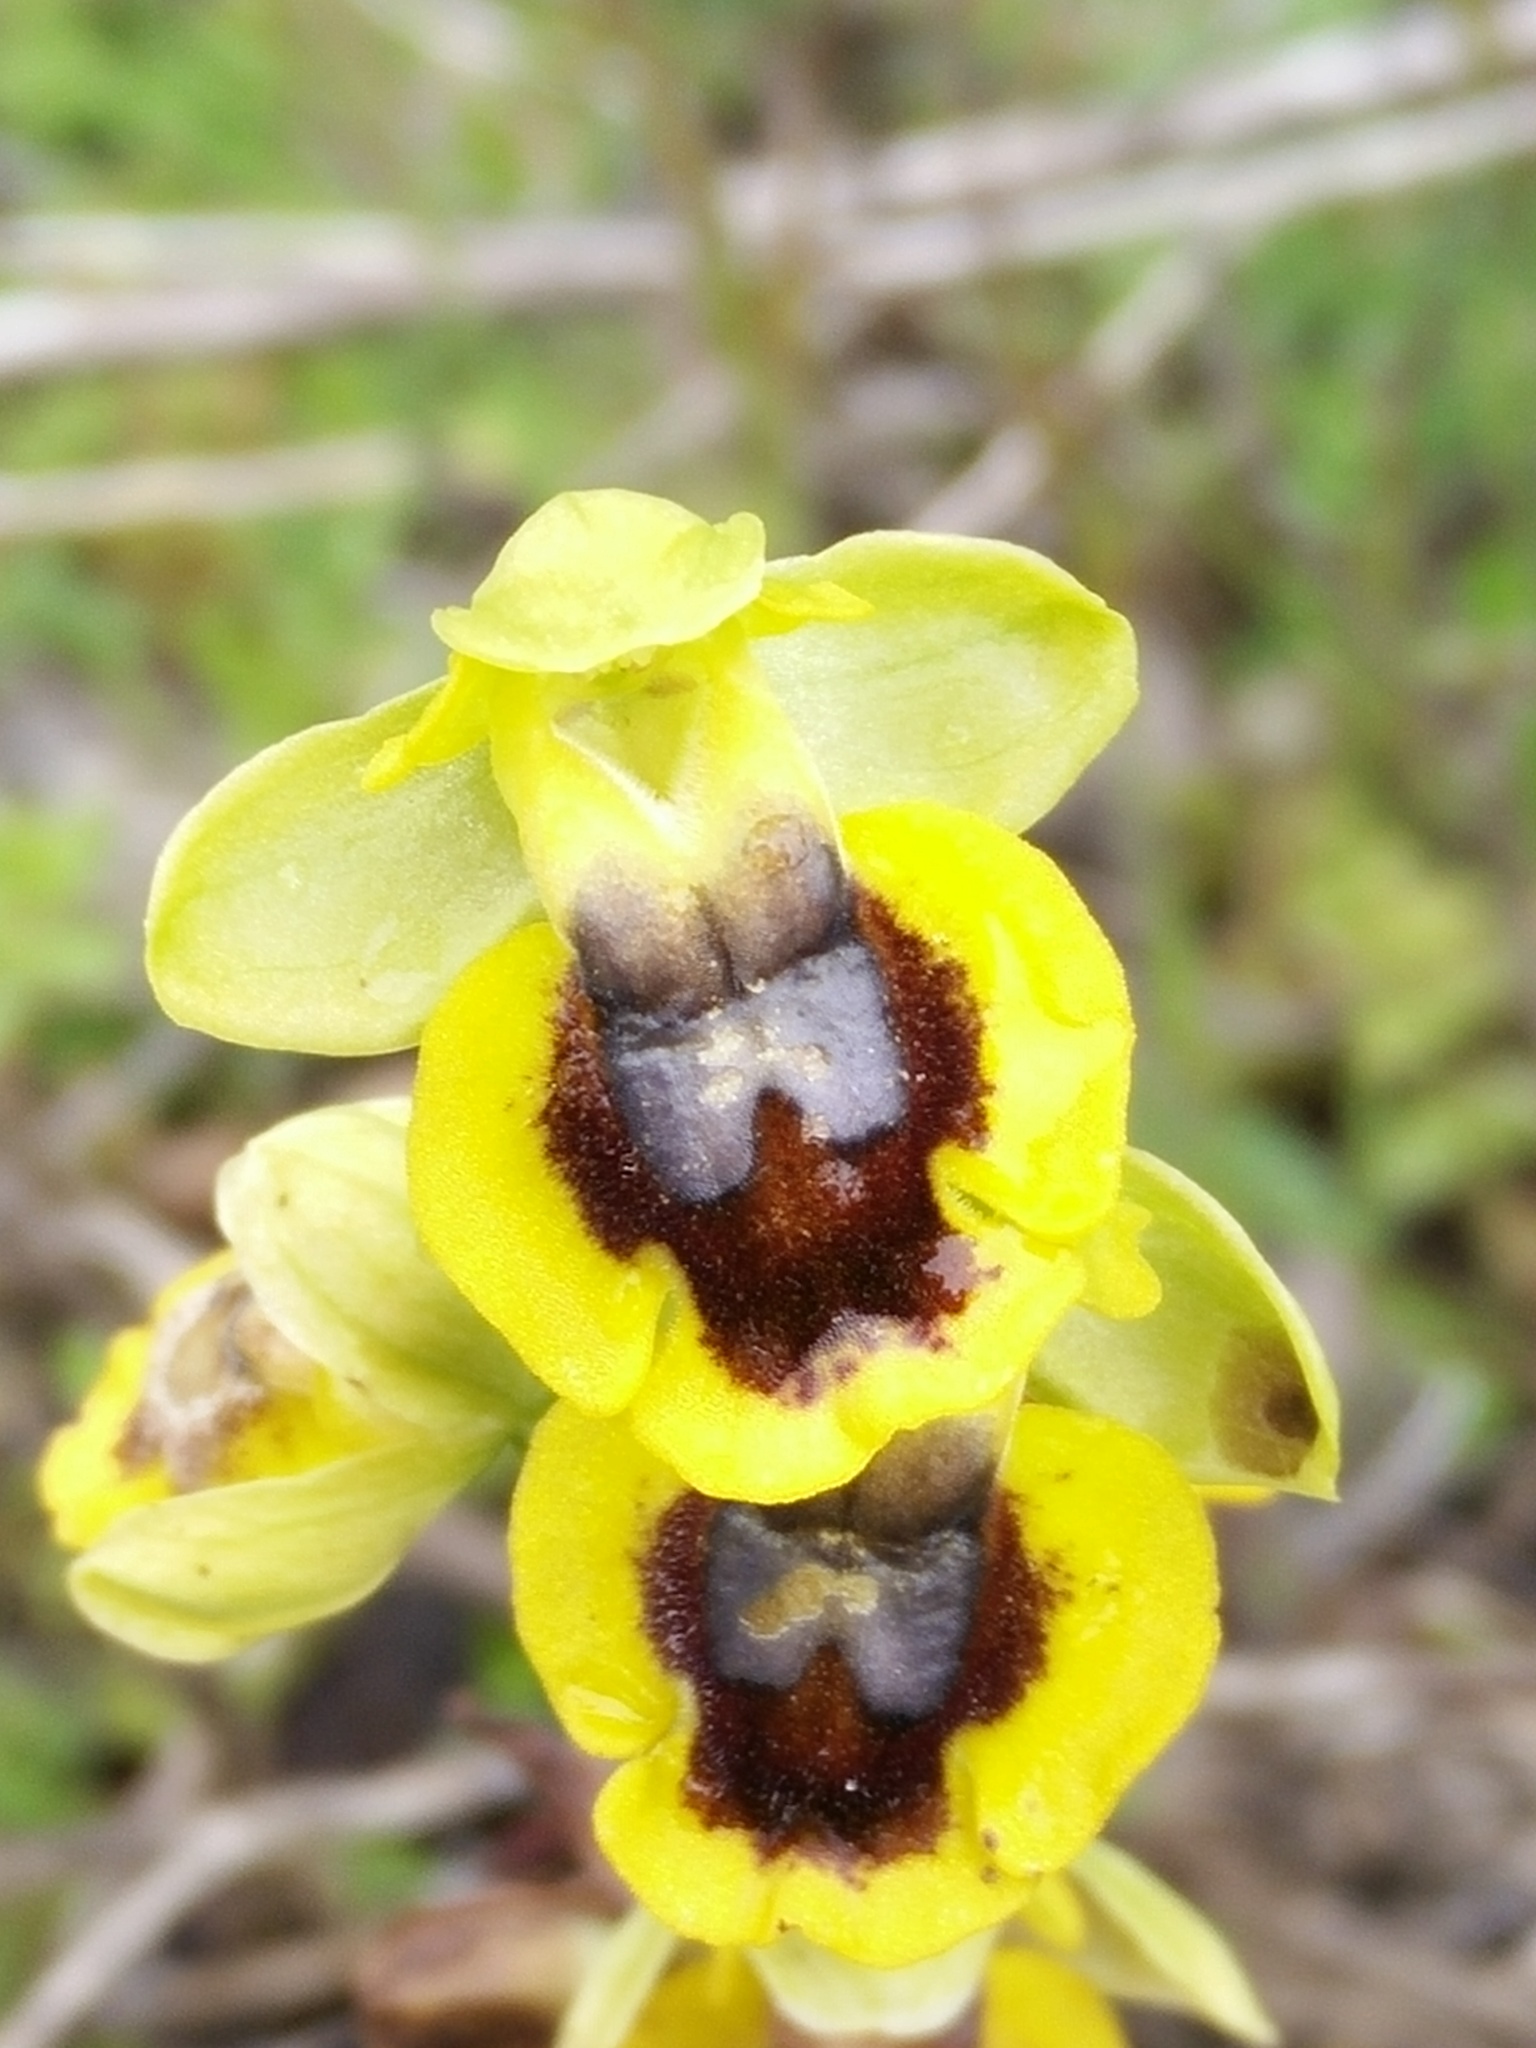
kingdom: Plantae
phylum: Tracheophyta
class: Liliopsida
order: Asparagales
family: Orchidaceae
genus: Ophrys
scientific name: Ophrys lutea
